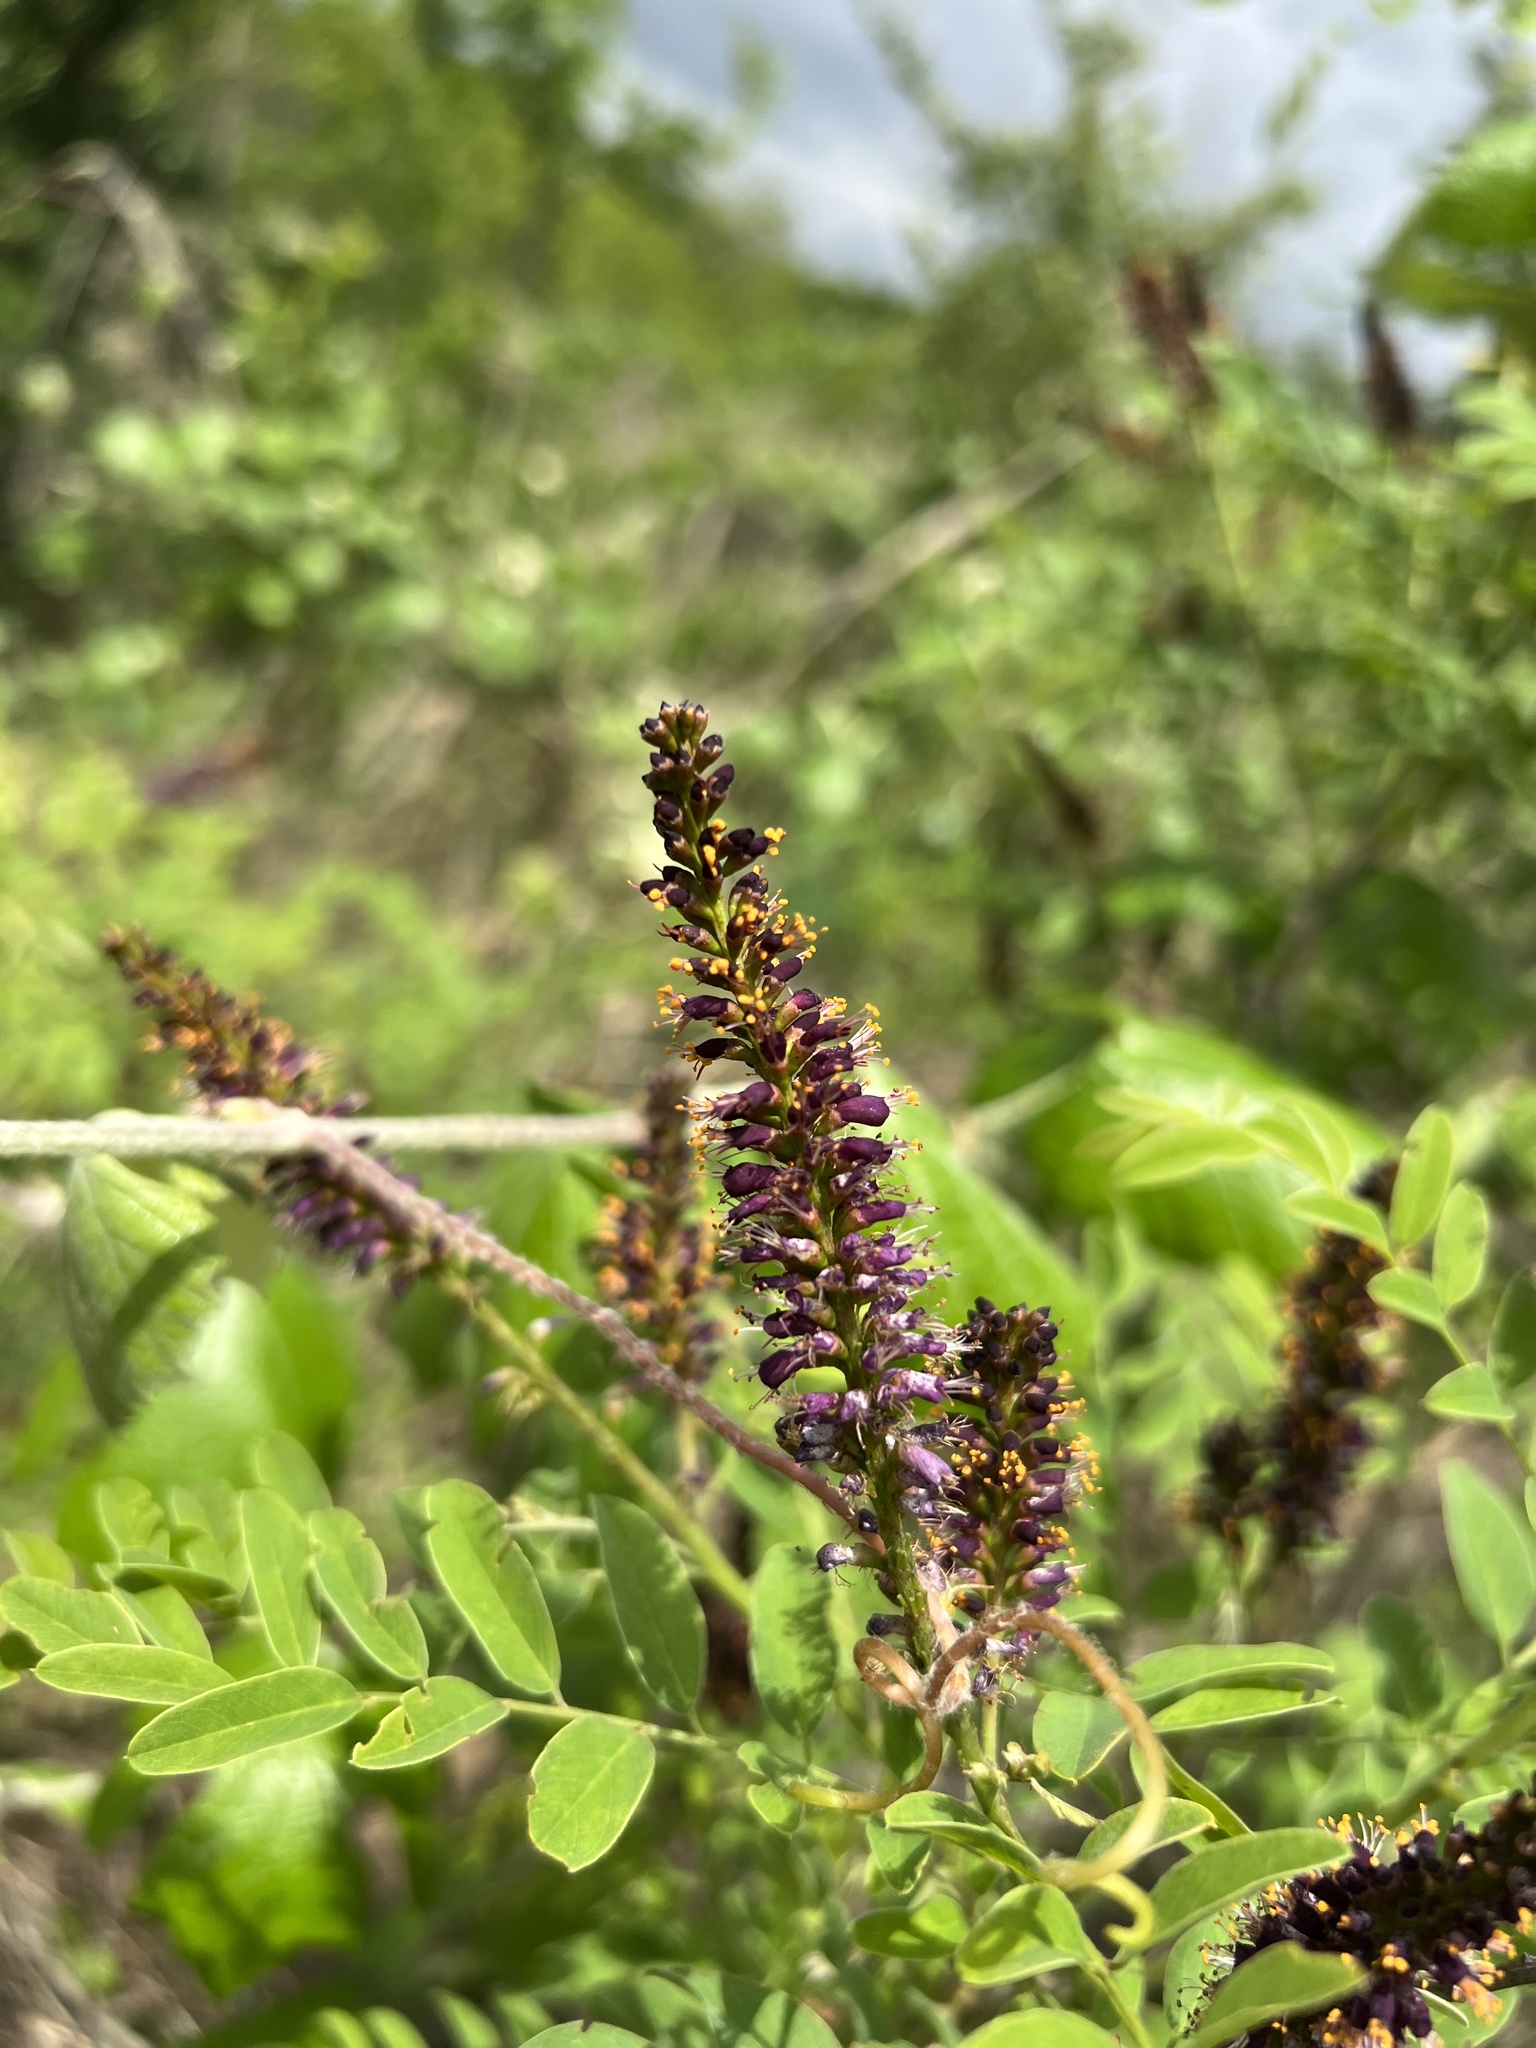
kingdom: Plantae
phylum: Tracheophyta
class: Magnoliopsida
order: Fabales
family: Fabaceae
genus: Amorpha
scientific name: Amorpha fruticosa
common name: False indigo
